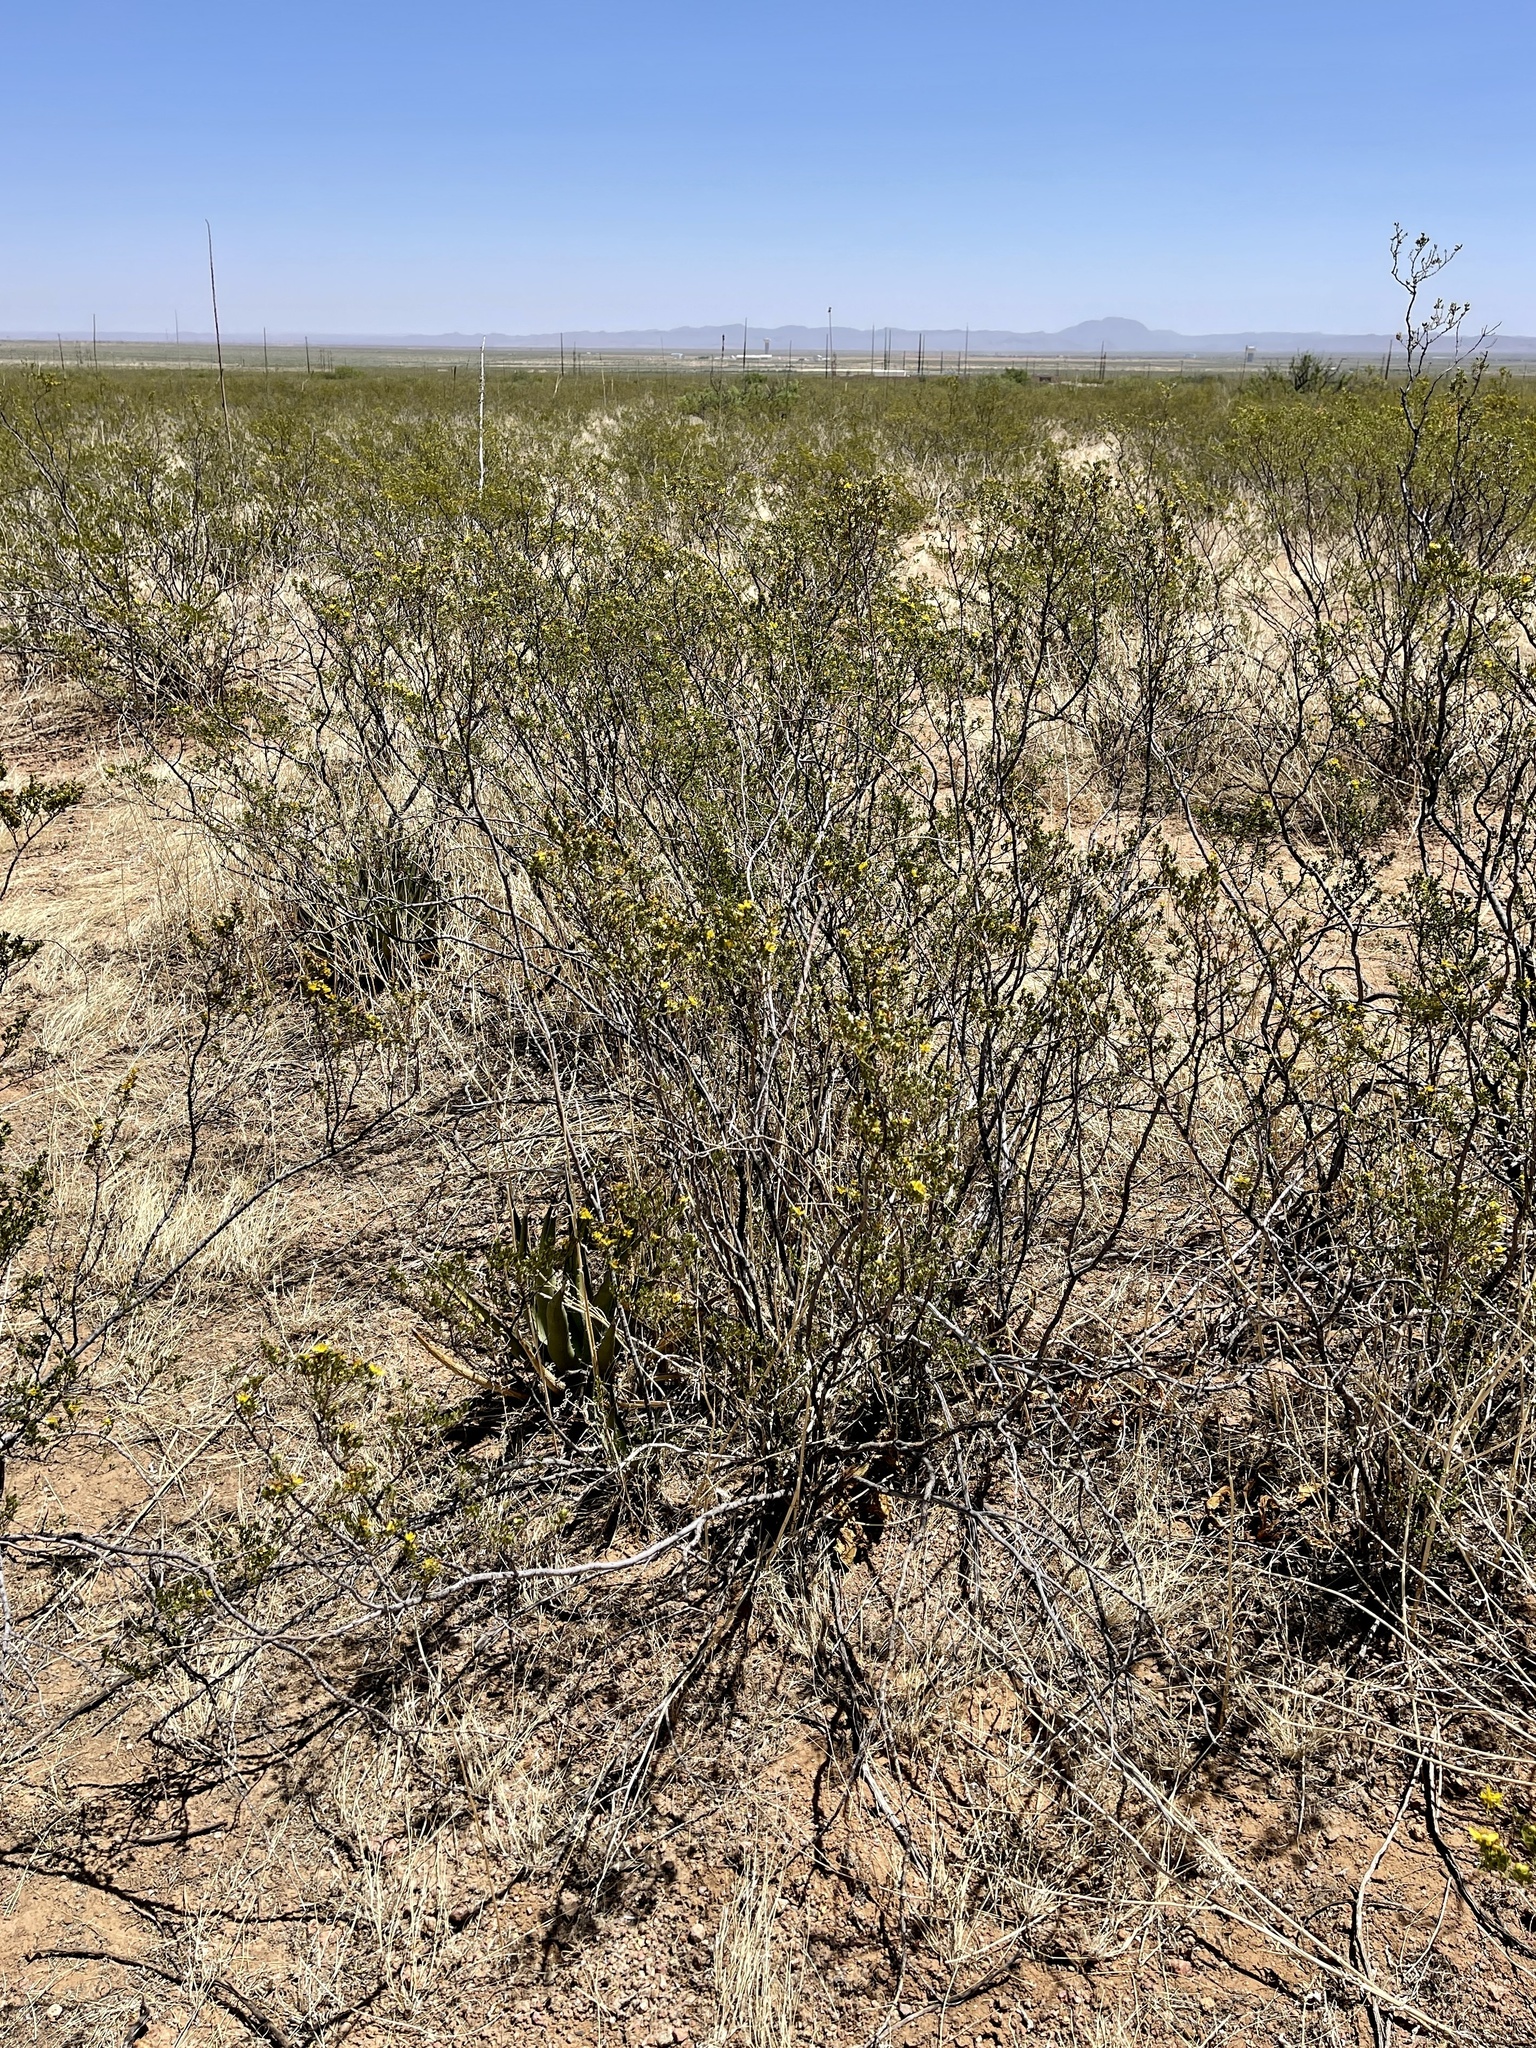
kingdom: Plantae
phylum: Tracheophyta
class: Magnoliopsida
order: Zygophyllales
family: Zygophyllaceae
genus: Larrea
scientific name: Larrea tridentata
